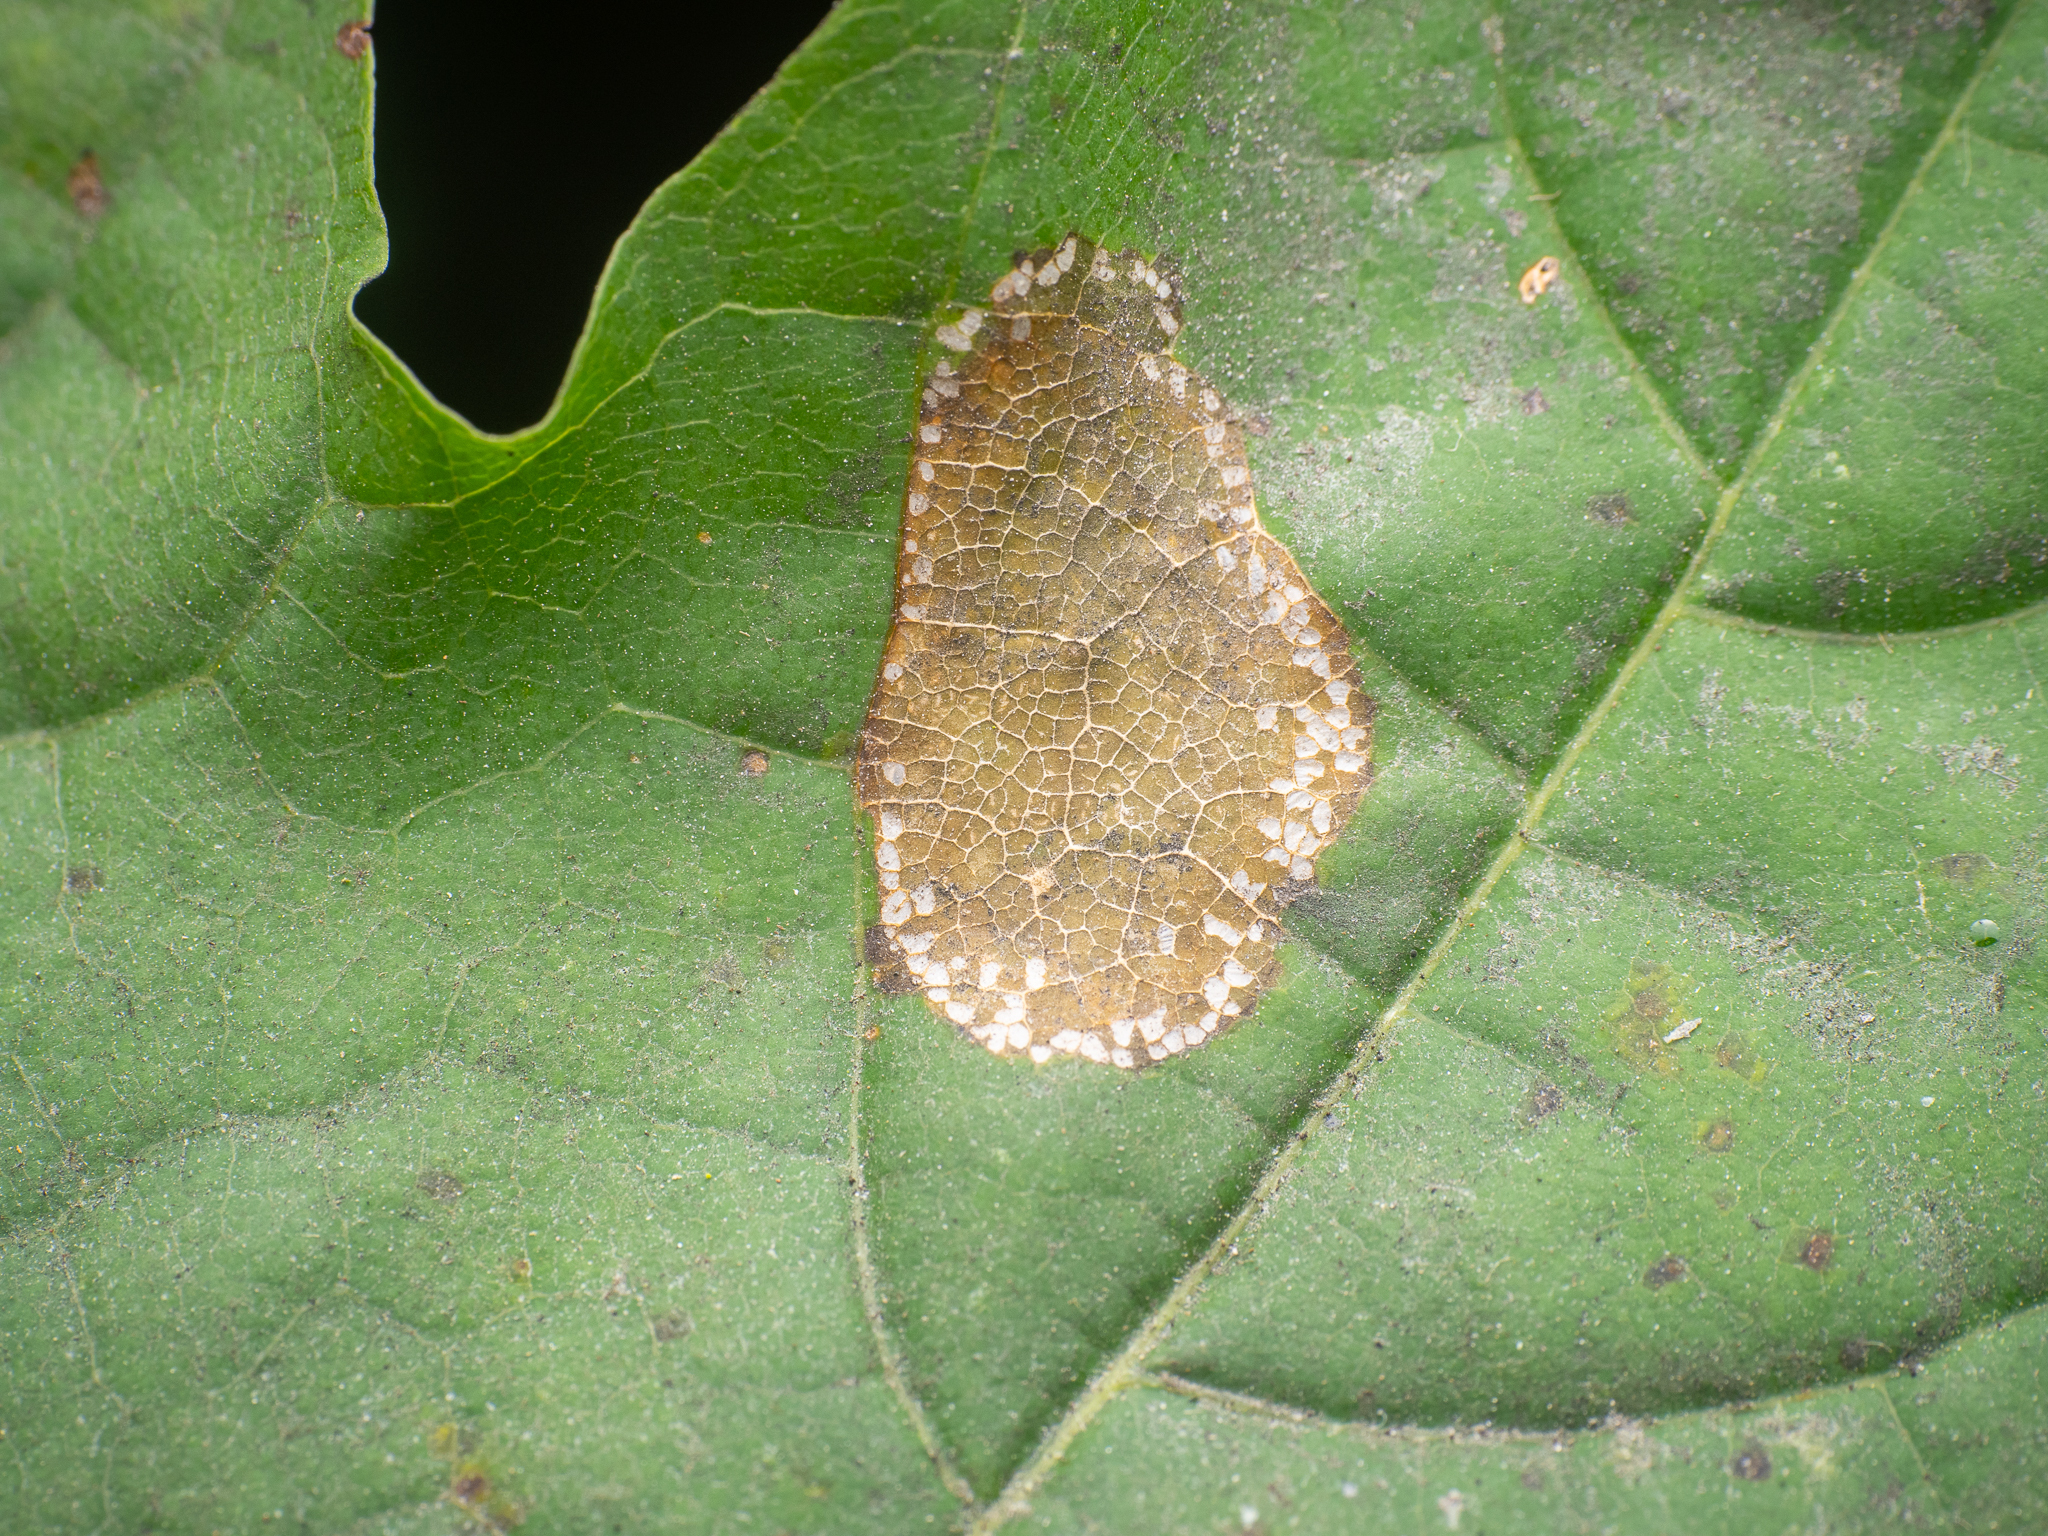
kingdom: Animalia
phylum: Arthropoda
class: Insecta
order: Lepidoptera
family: Gracillariidae
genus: Phyllonorycter
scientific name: Phyllonorycter joannisi
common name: White-bodied midget
